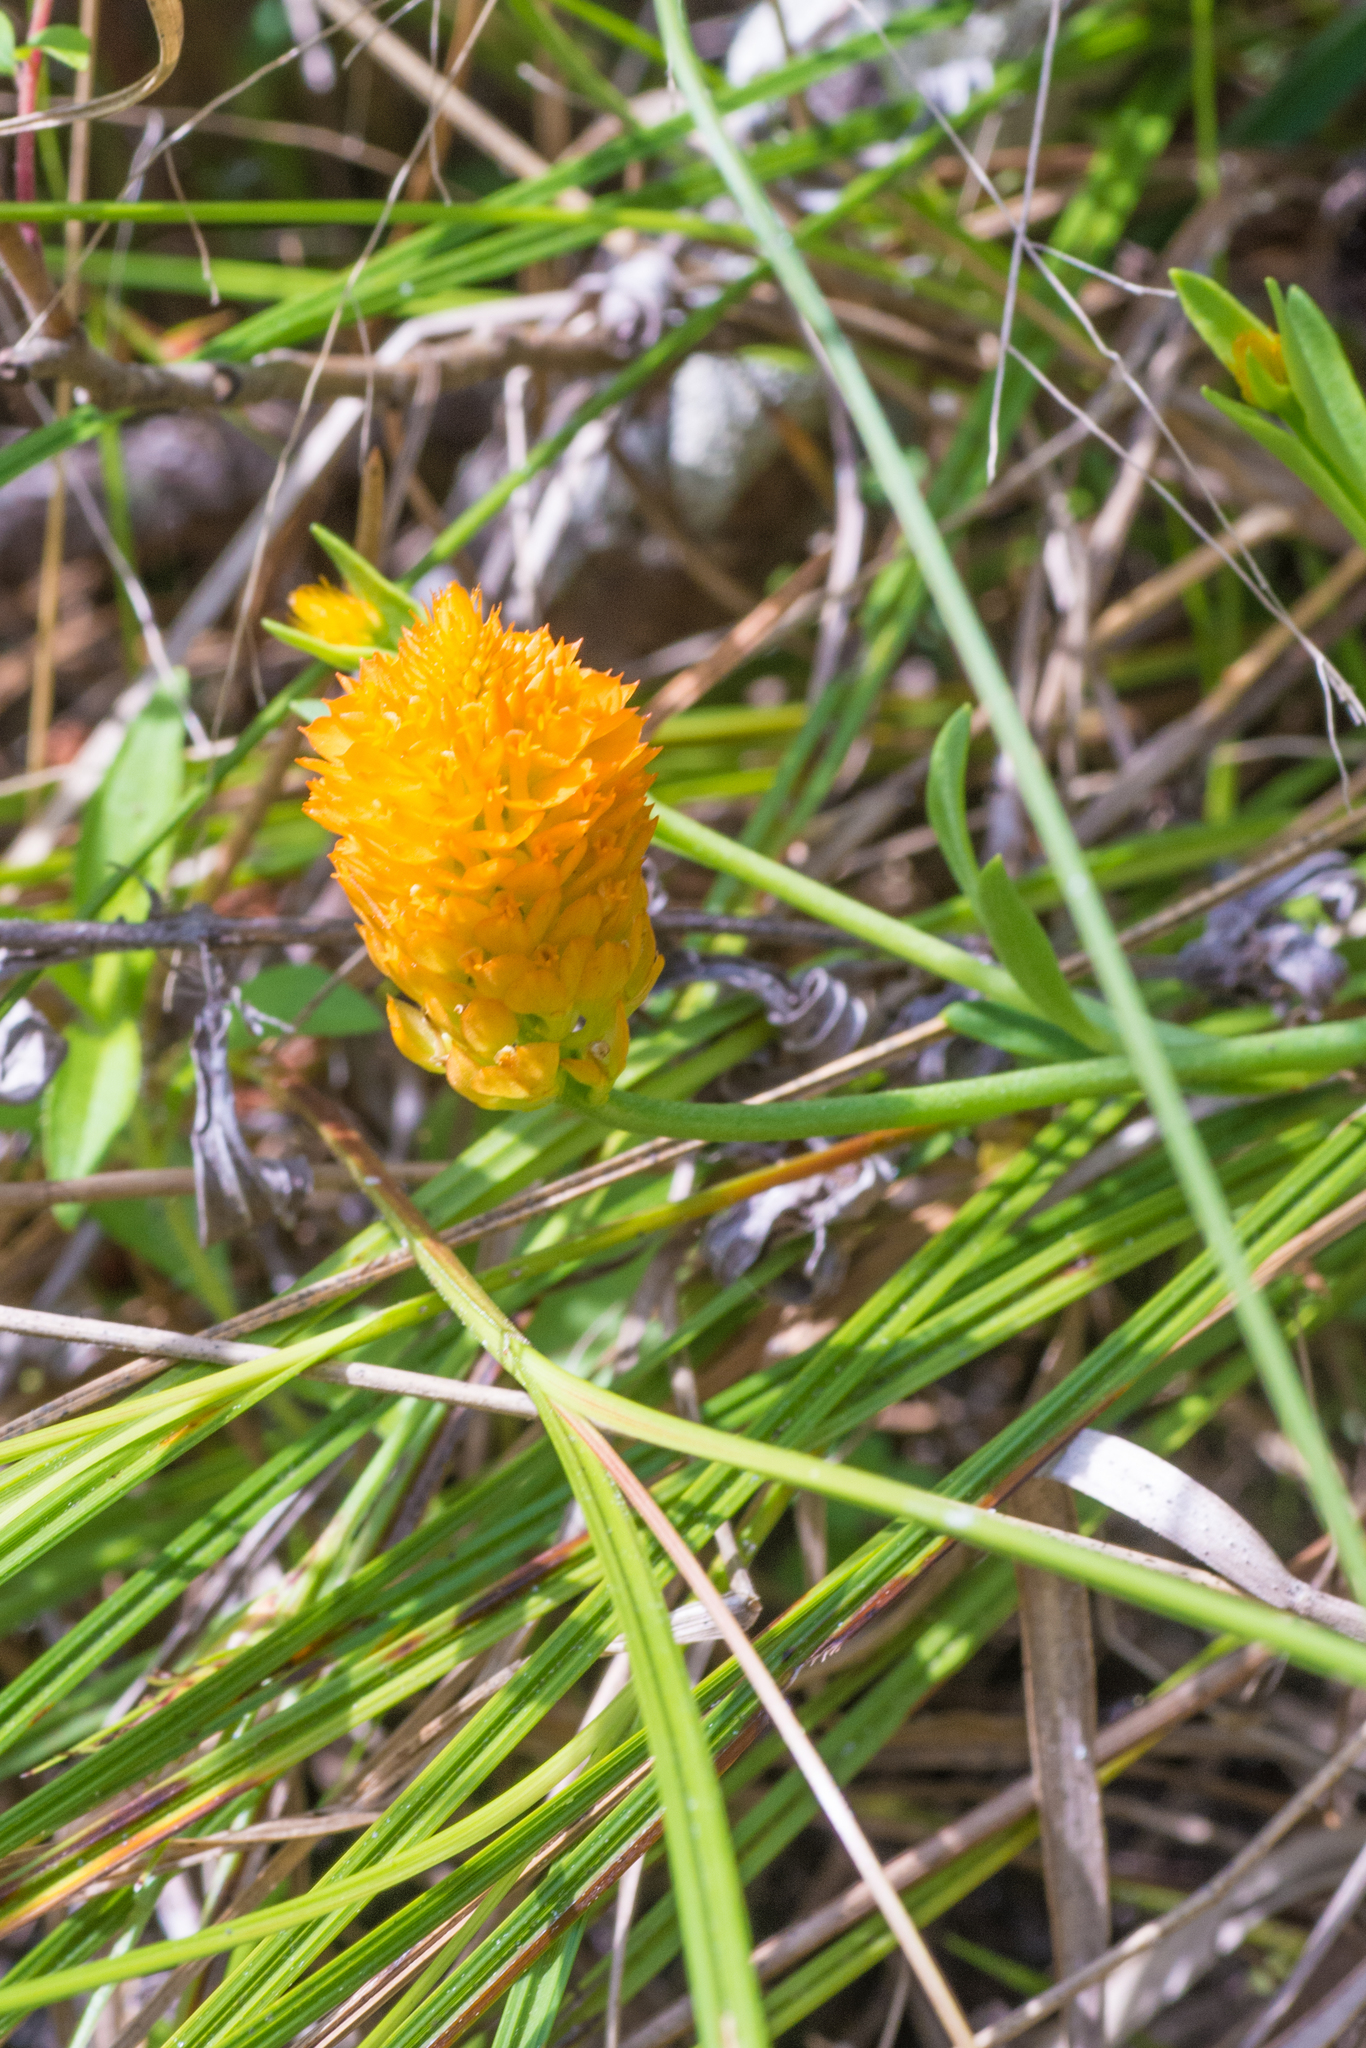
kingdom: Plantae
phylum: Tracheophyta
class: Magnoliopsida
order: Fabales
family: Polygalaceae
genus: Polygala
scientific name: Polygala lutea
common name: Orange milkwort
